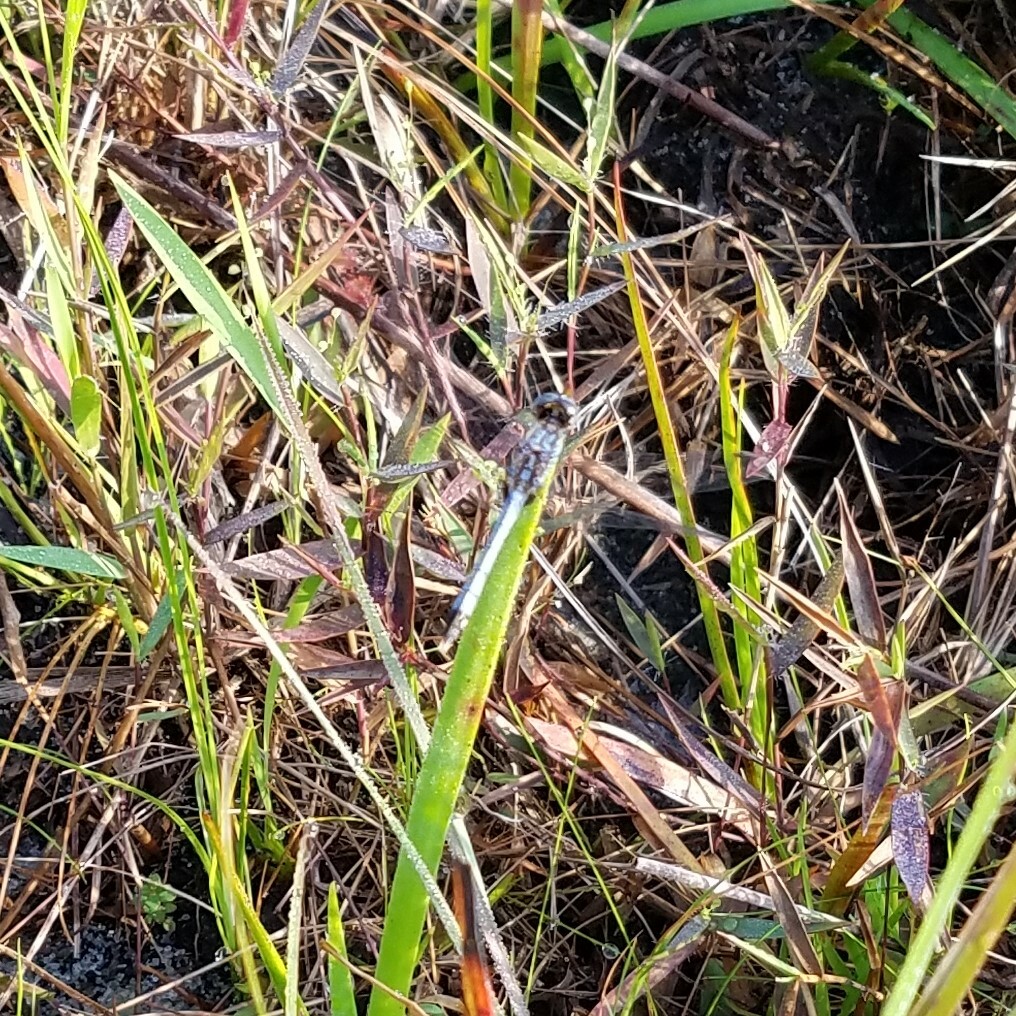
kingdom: Animalia
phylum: Arthropoda
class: Insecta
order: Odonata
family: Libellulidae
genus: Erythrodiplax
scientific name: Erythrodiplax minuscula
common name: Little blue dragonlet
